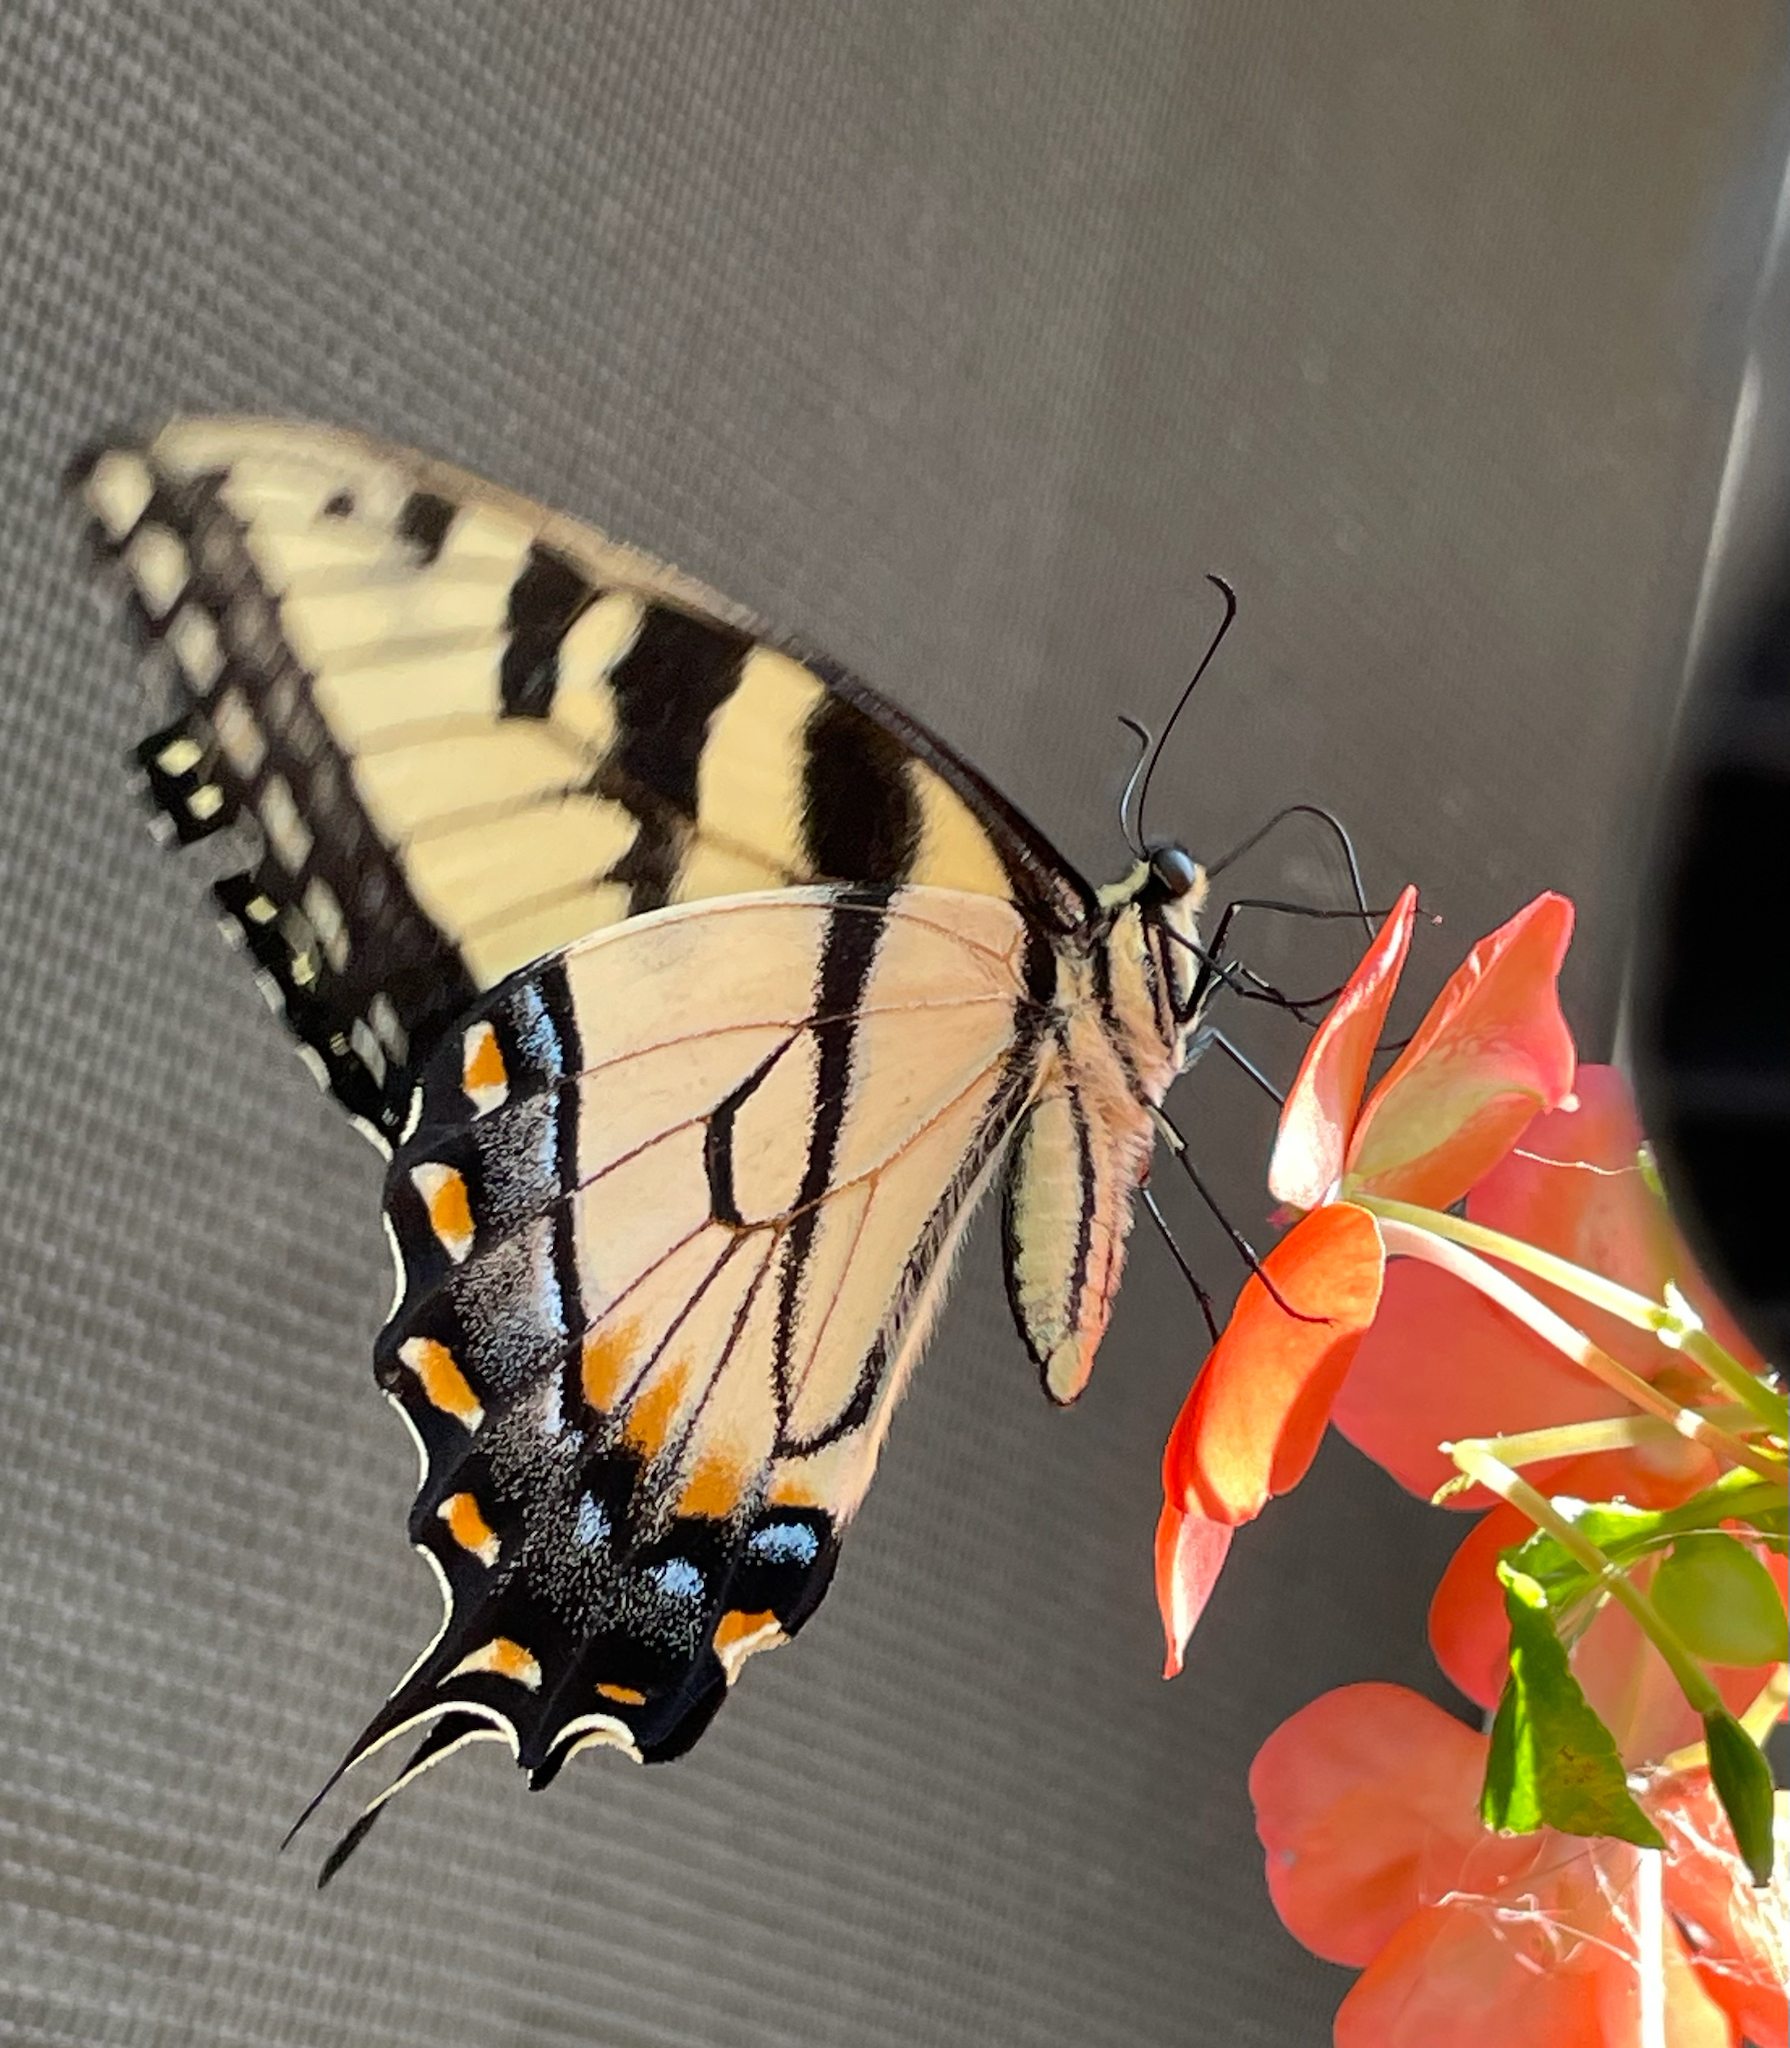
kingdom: Animalia
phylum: Arthropoda
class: Insecta
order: Lepidoptera
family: Papilionidae
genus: Papilio
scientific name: Papilio glaucus
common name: Tiger swallowtail
